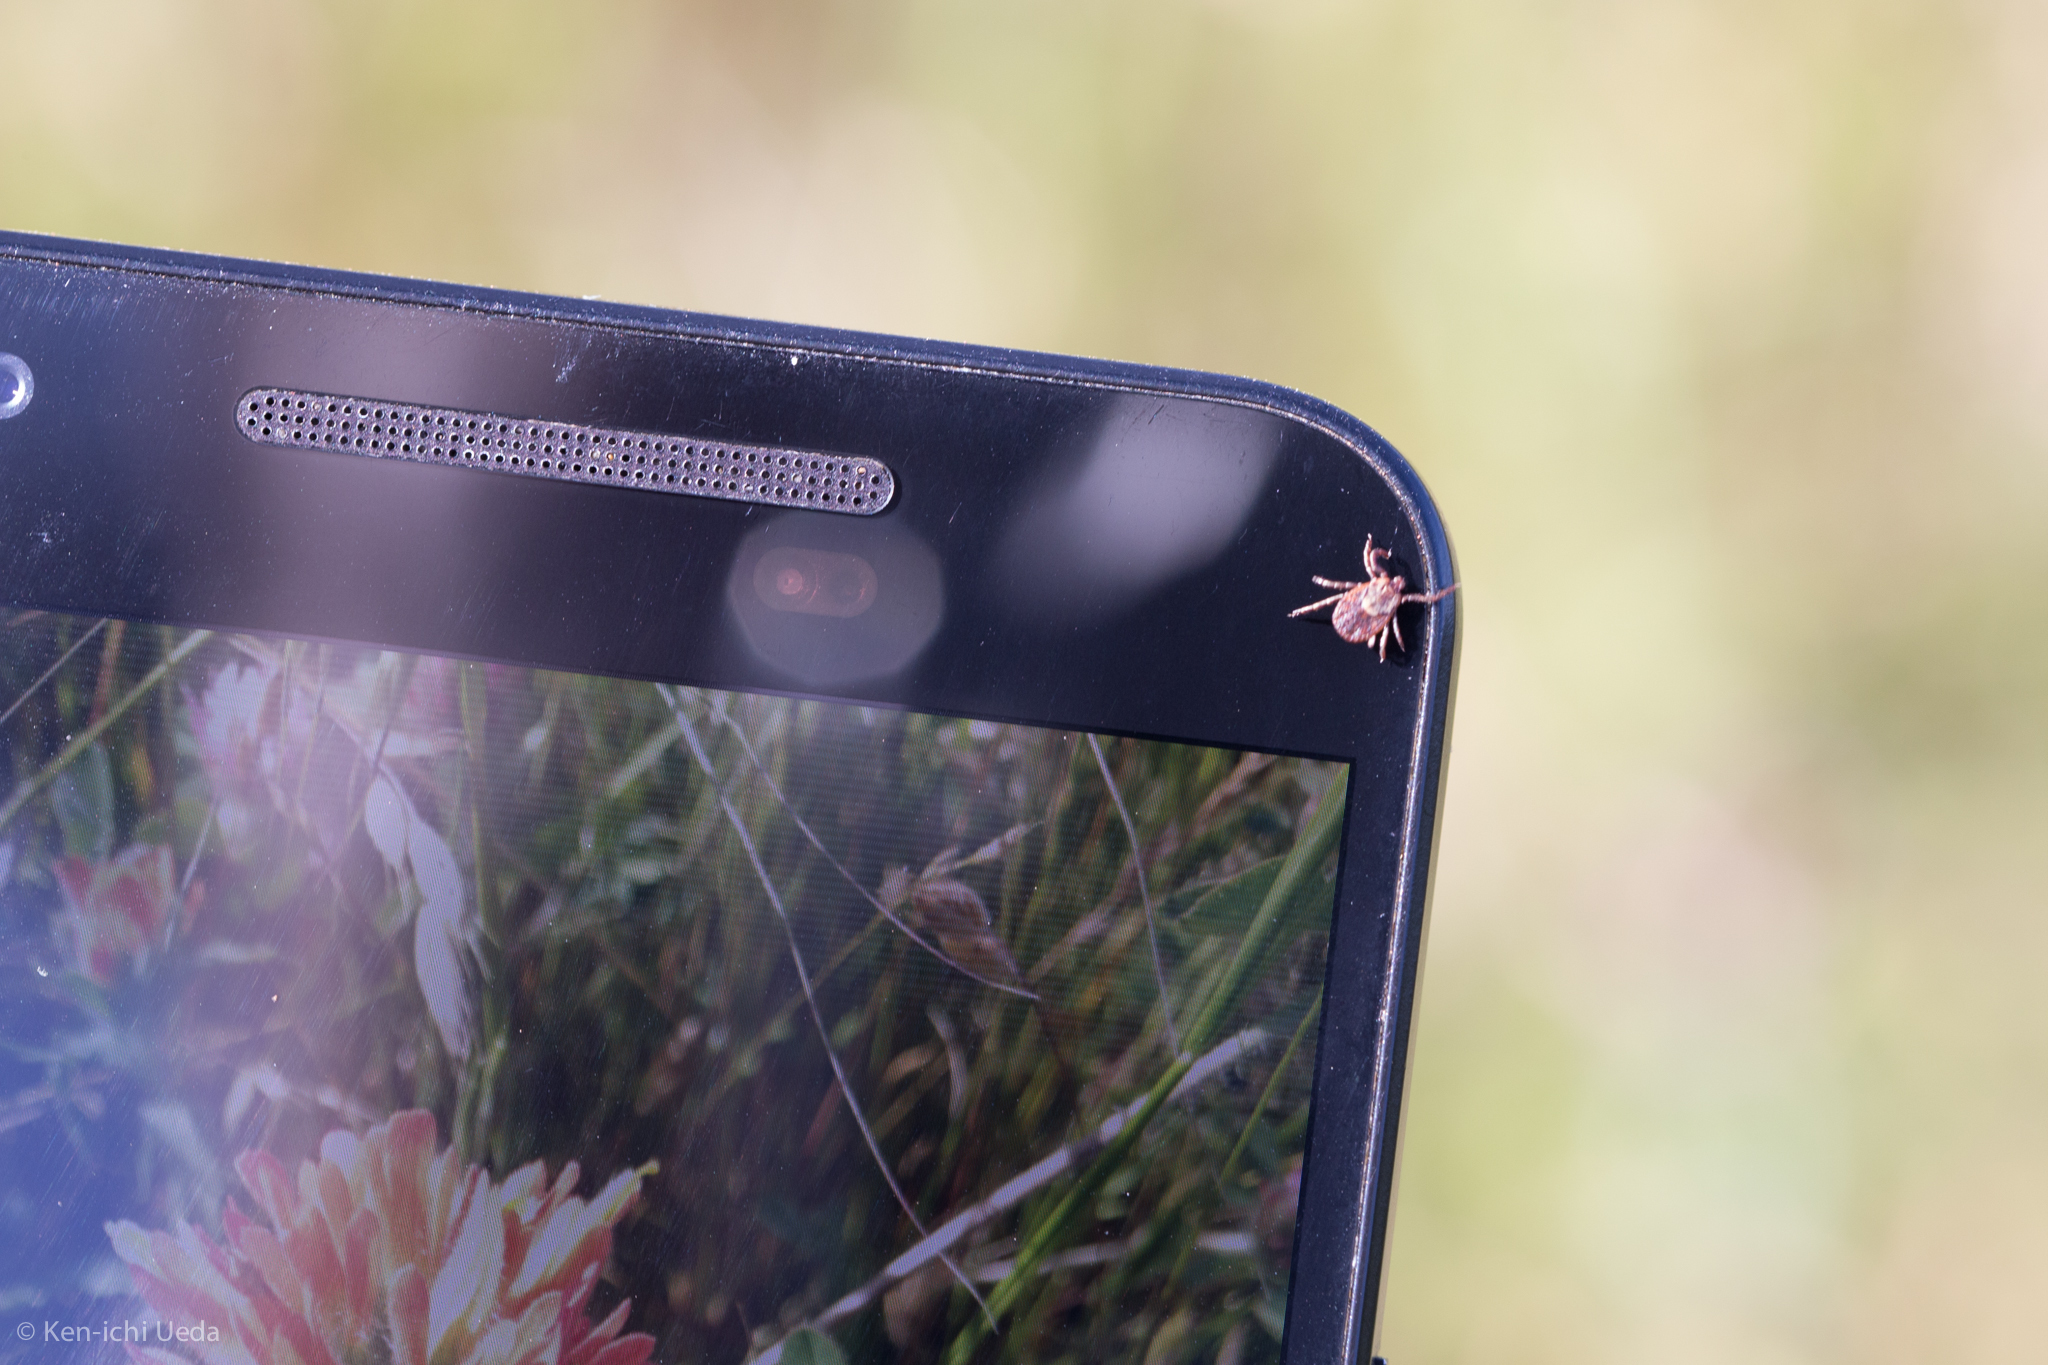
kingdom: Animalia
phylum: Arthropoda
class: Arachnida
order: Ixodida
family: Ixodidae
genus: Dermacentor
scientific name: Dermacentor variabilis
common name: American dog tick
